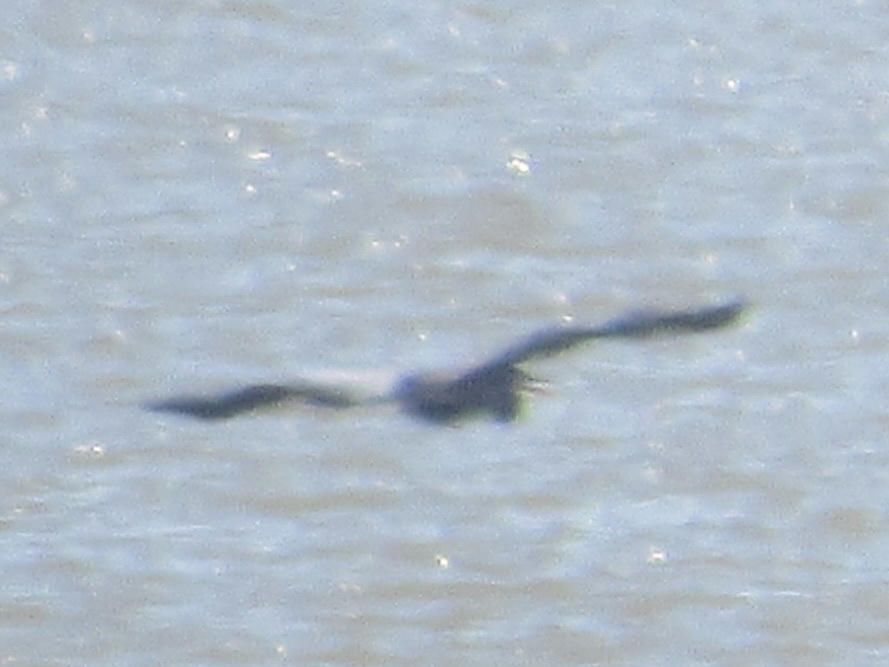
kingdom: Animalia
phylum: Chordata
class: Aves
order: Pelecaniformes
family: Ardeidae
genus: Ardea
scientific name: Ardea herodias
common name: Great blue heron
